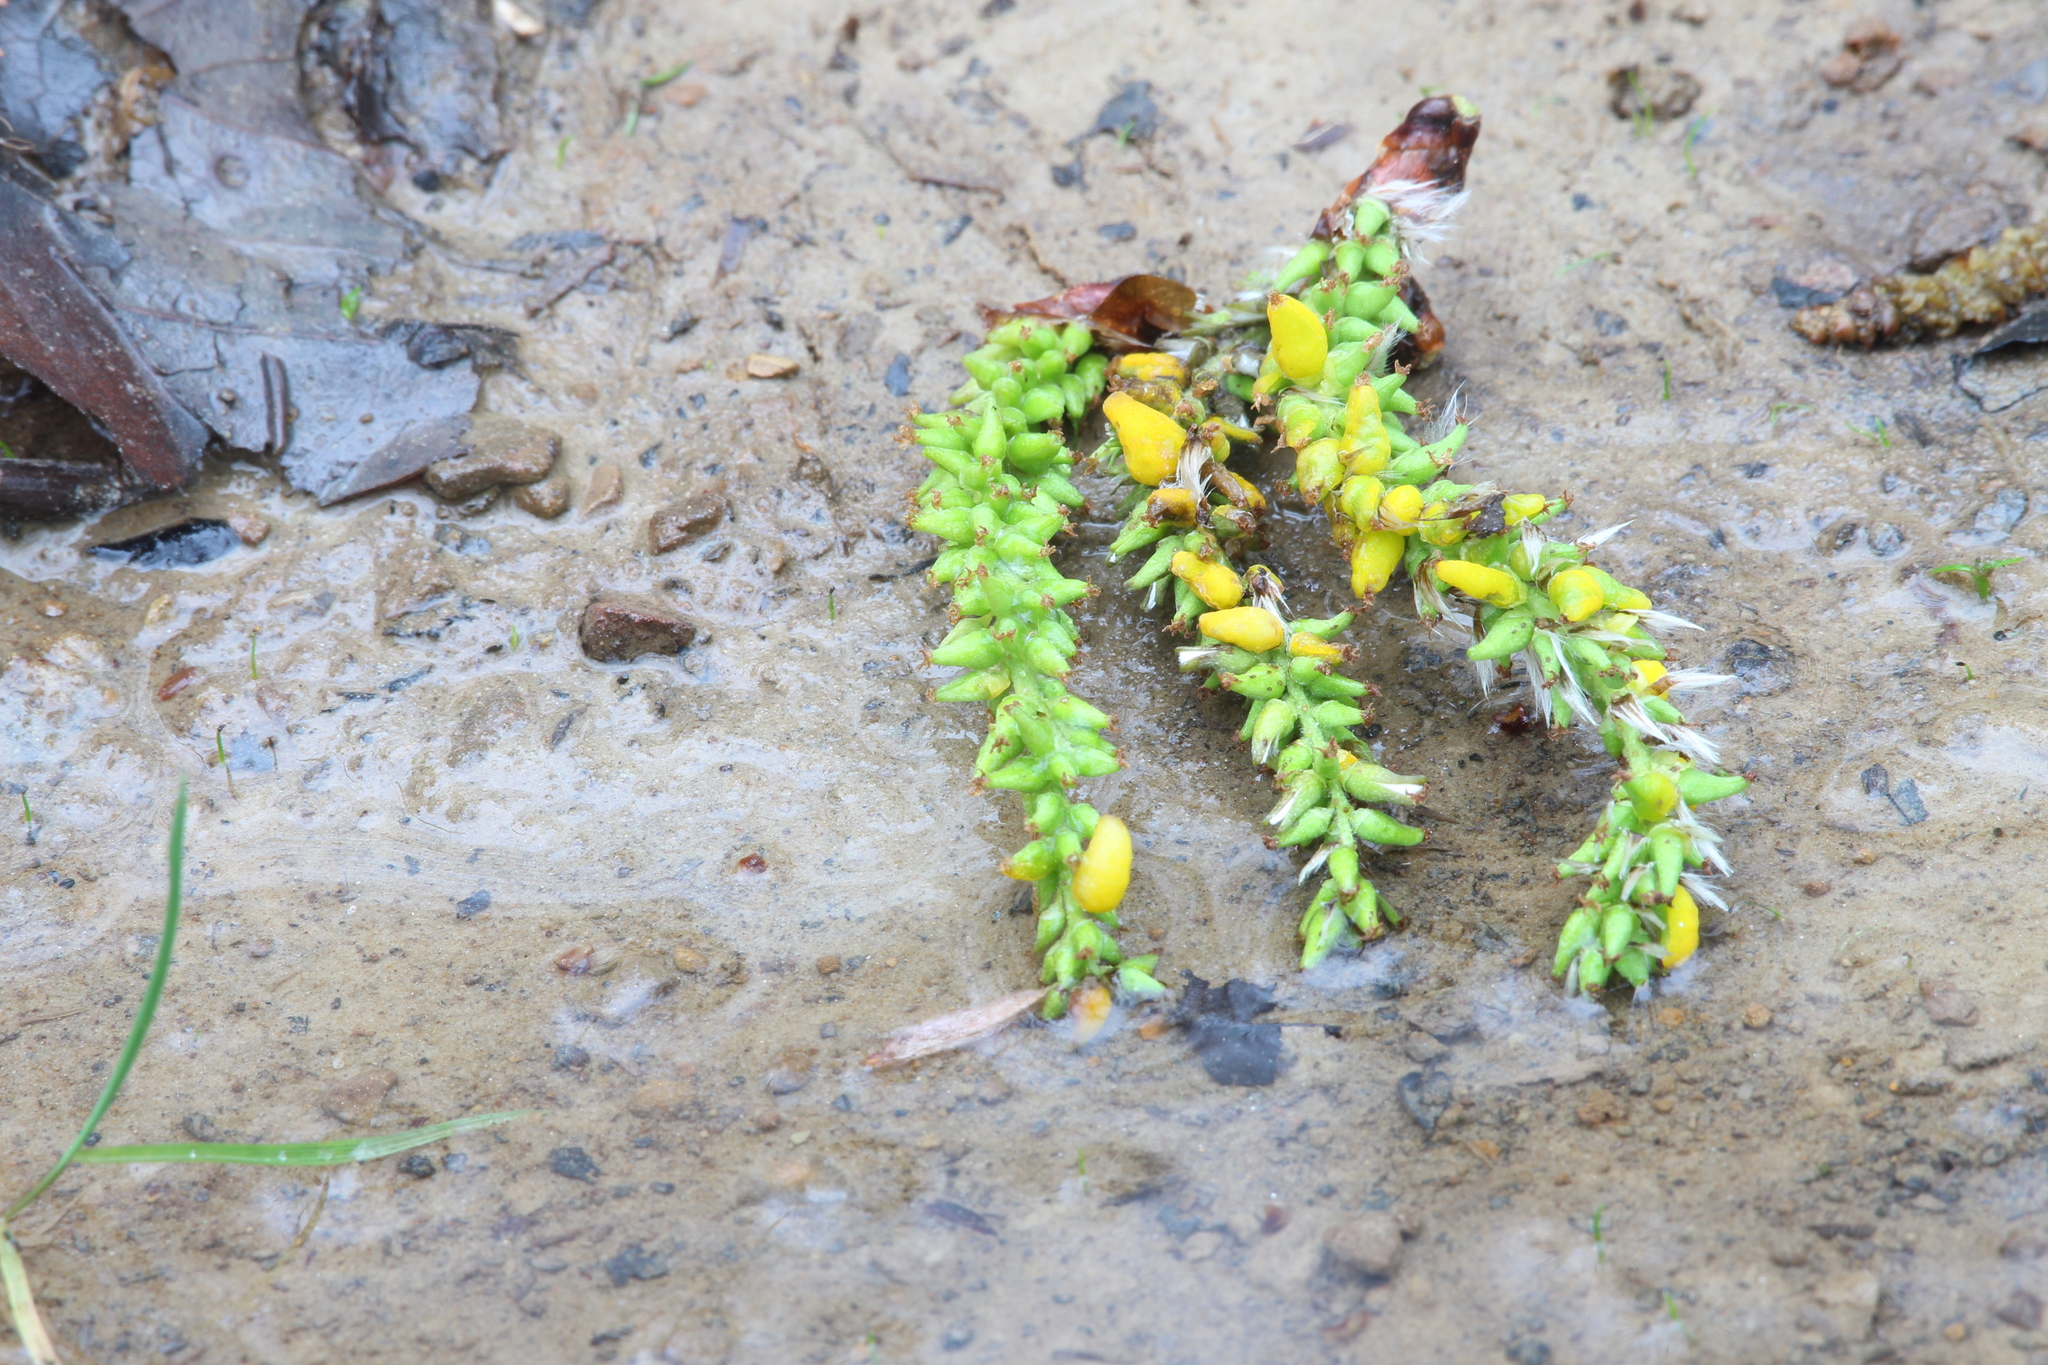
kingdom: Fungi
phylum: Ascomycota
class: Taphrinomycetes
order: Taphrinales
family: Taphrinaceae
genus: Taphrina
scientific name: Taphrina johansonii
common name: Aspen tongue
